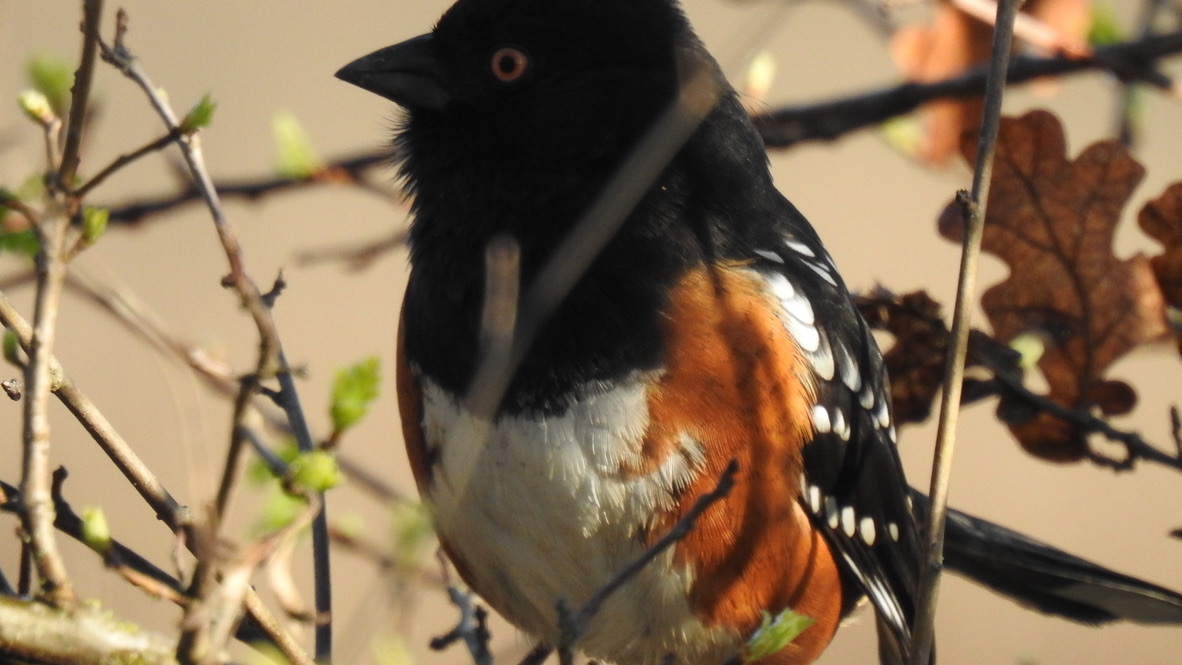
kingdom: Animalia
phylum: Chordata
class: Aves
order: Passeriformes
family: Passerellidae
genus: Pipilo
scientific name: Pipilo maculatus
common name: Spotted towhee
